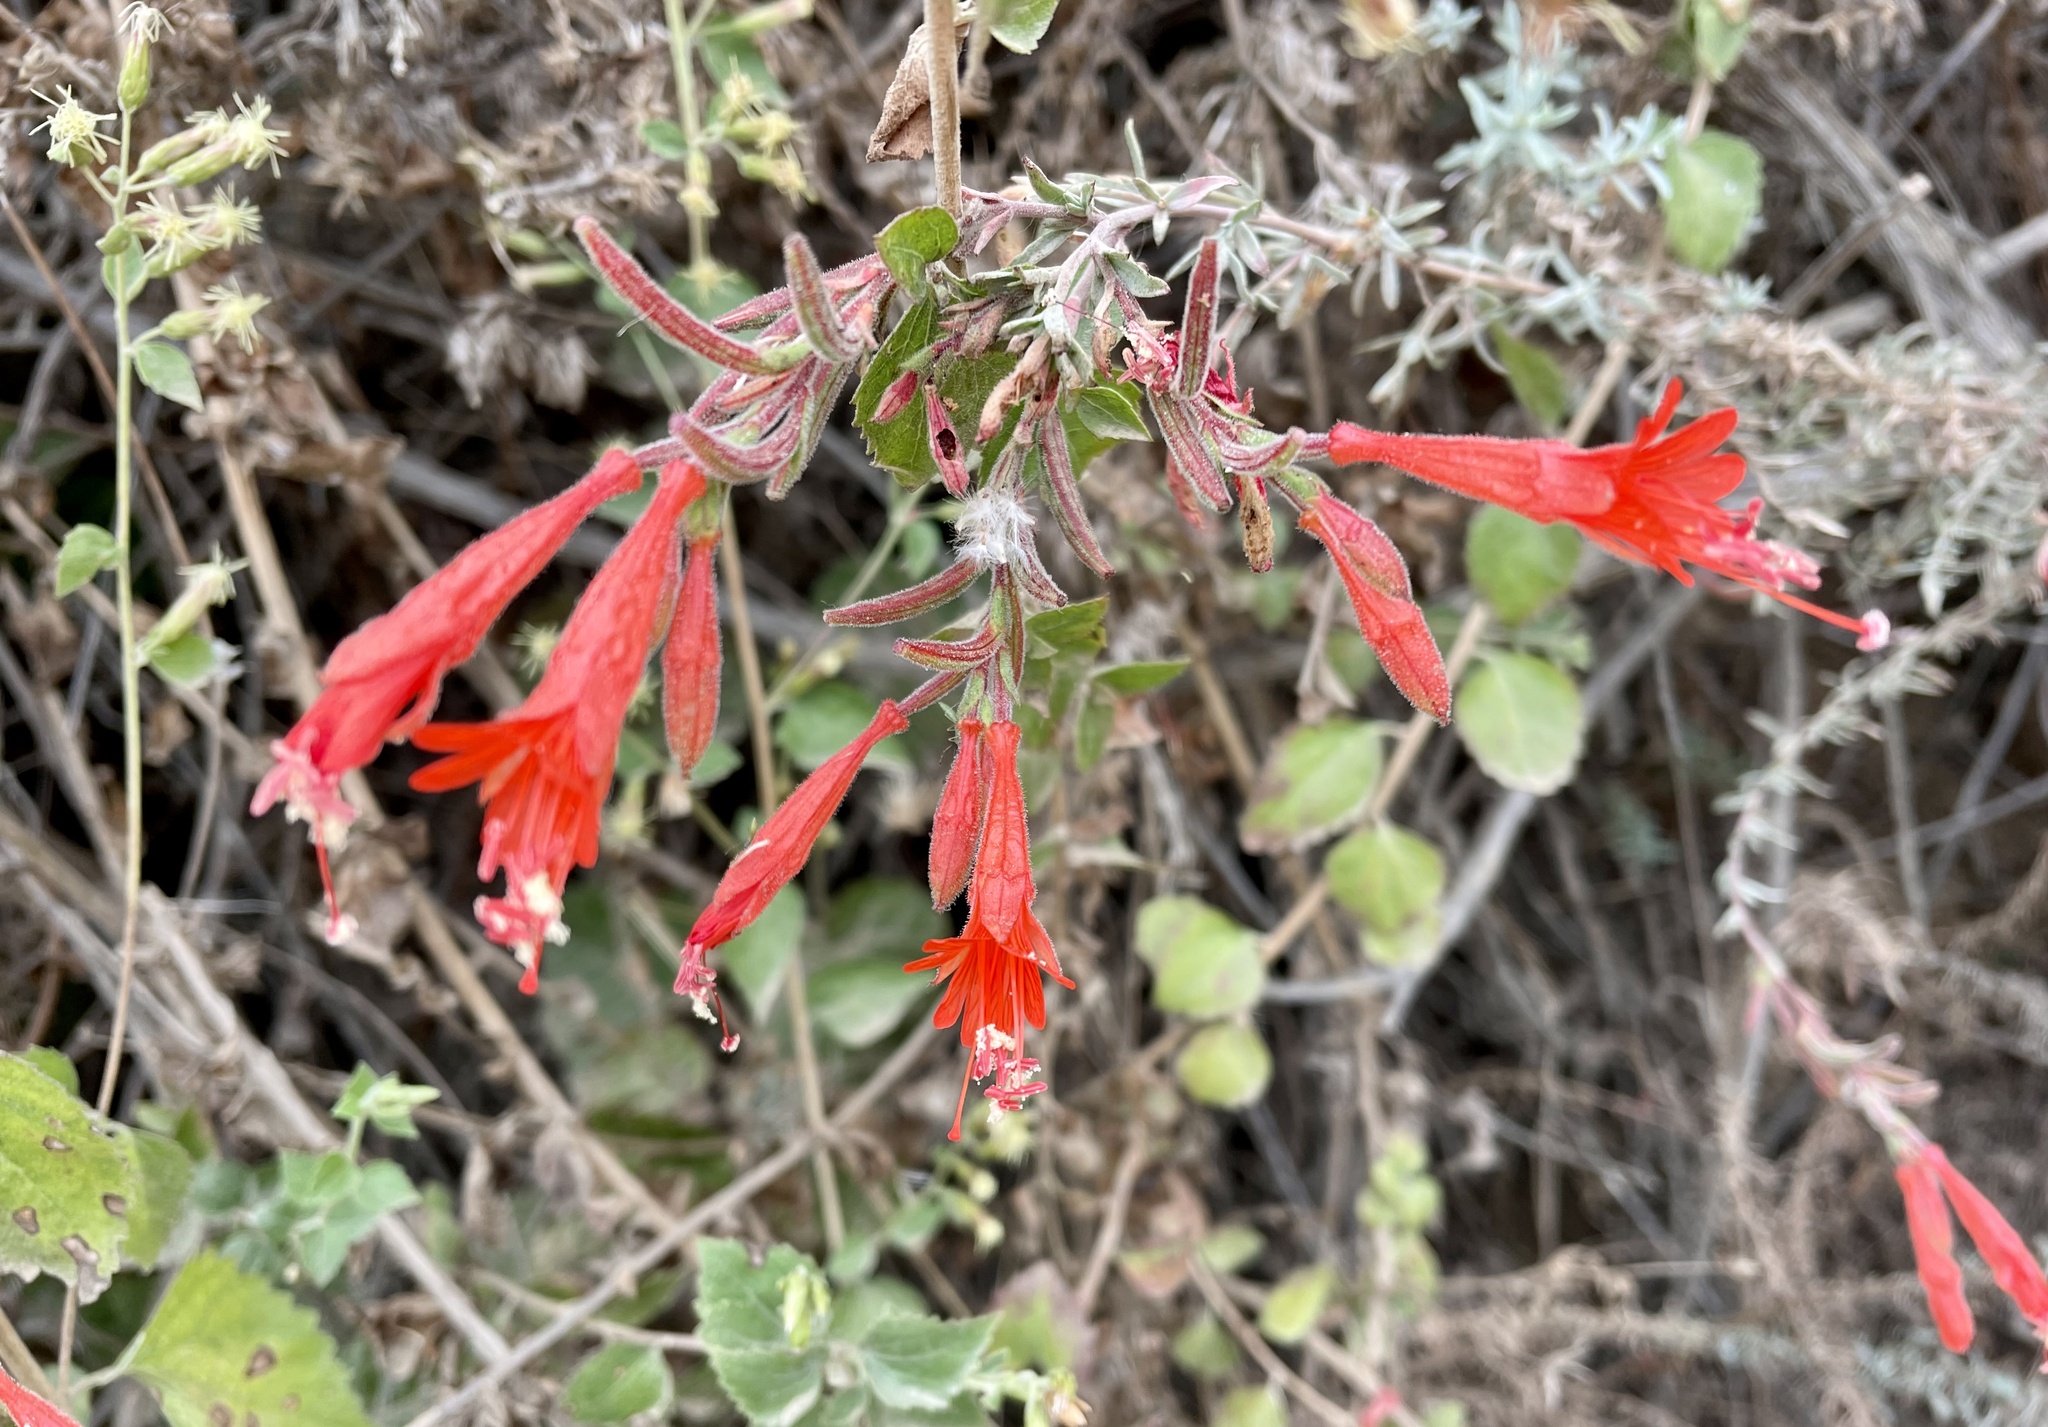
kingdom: Plantae
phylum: Tracheophyta
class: Magnoliopsida
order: Myrtales
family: Onagraceae
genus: Epilobium
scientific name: Epilobium canum
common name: California-fuchsia
